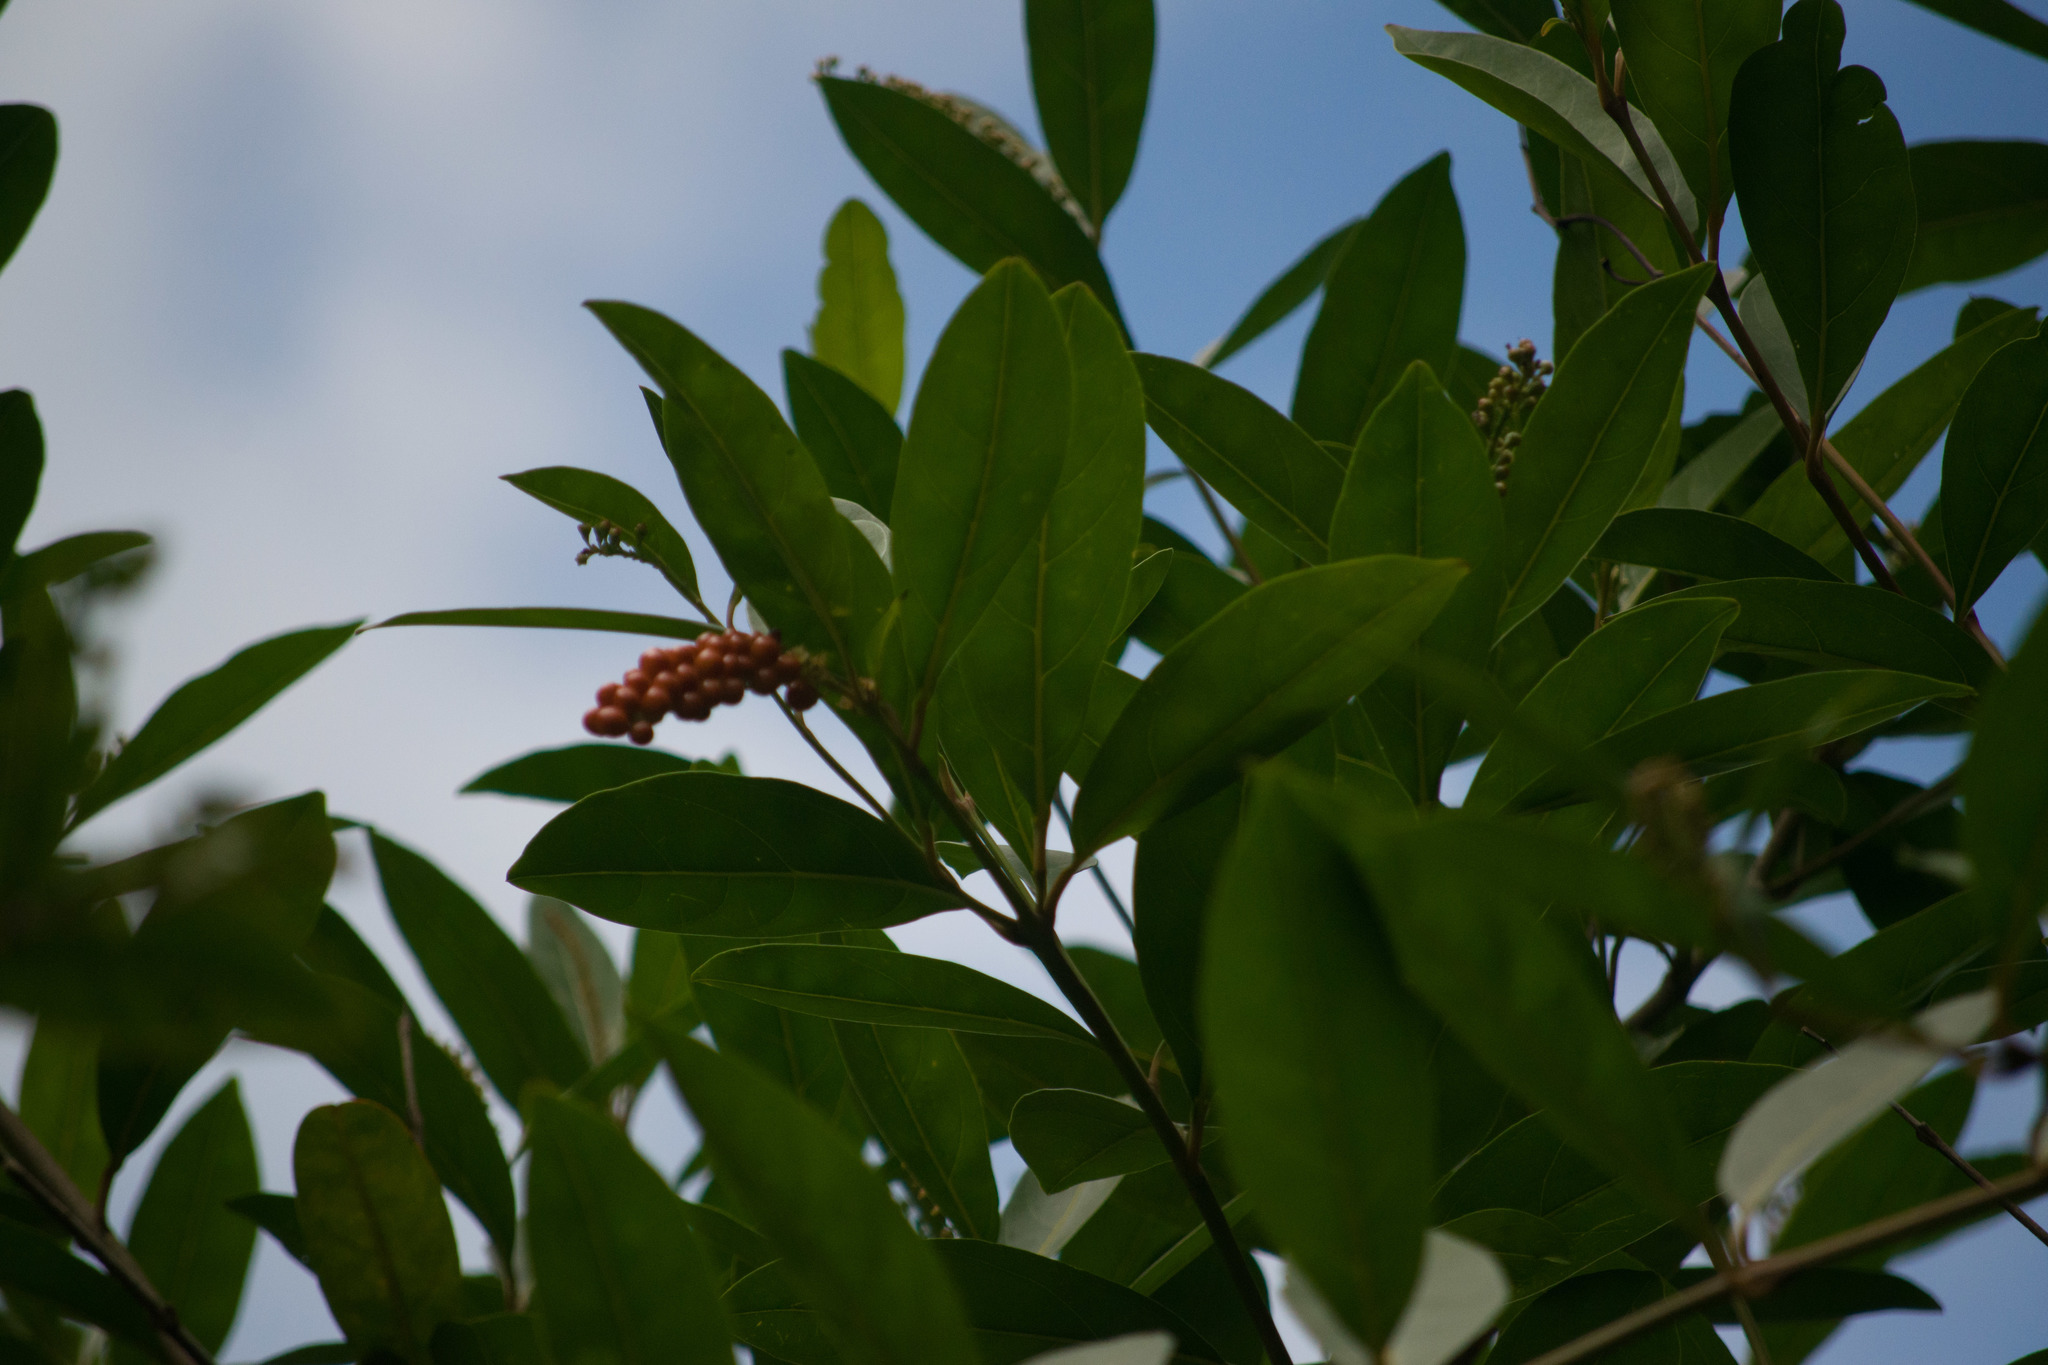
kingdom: Plantae
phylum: Tracheophyta
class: Magnoliopsida
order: Lamiales
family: Verbenaceae
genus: Citharexylum
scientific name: Citharexylum caudatum
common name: Fiddlewood
